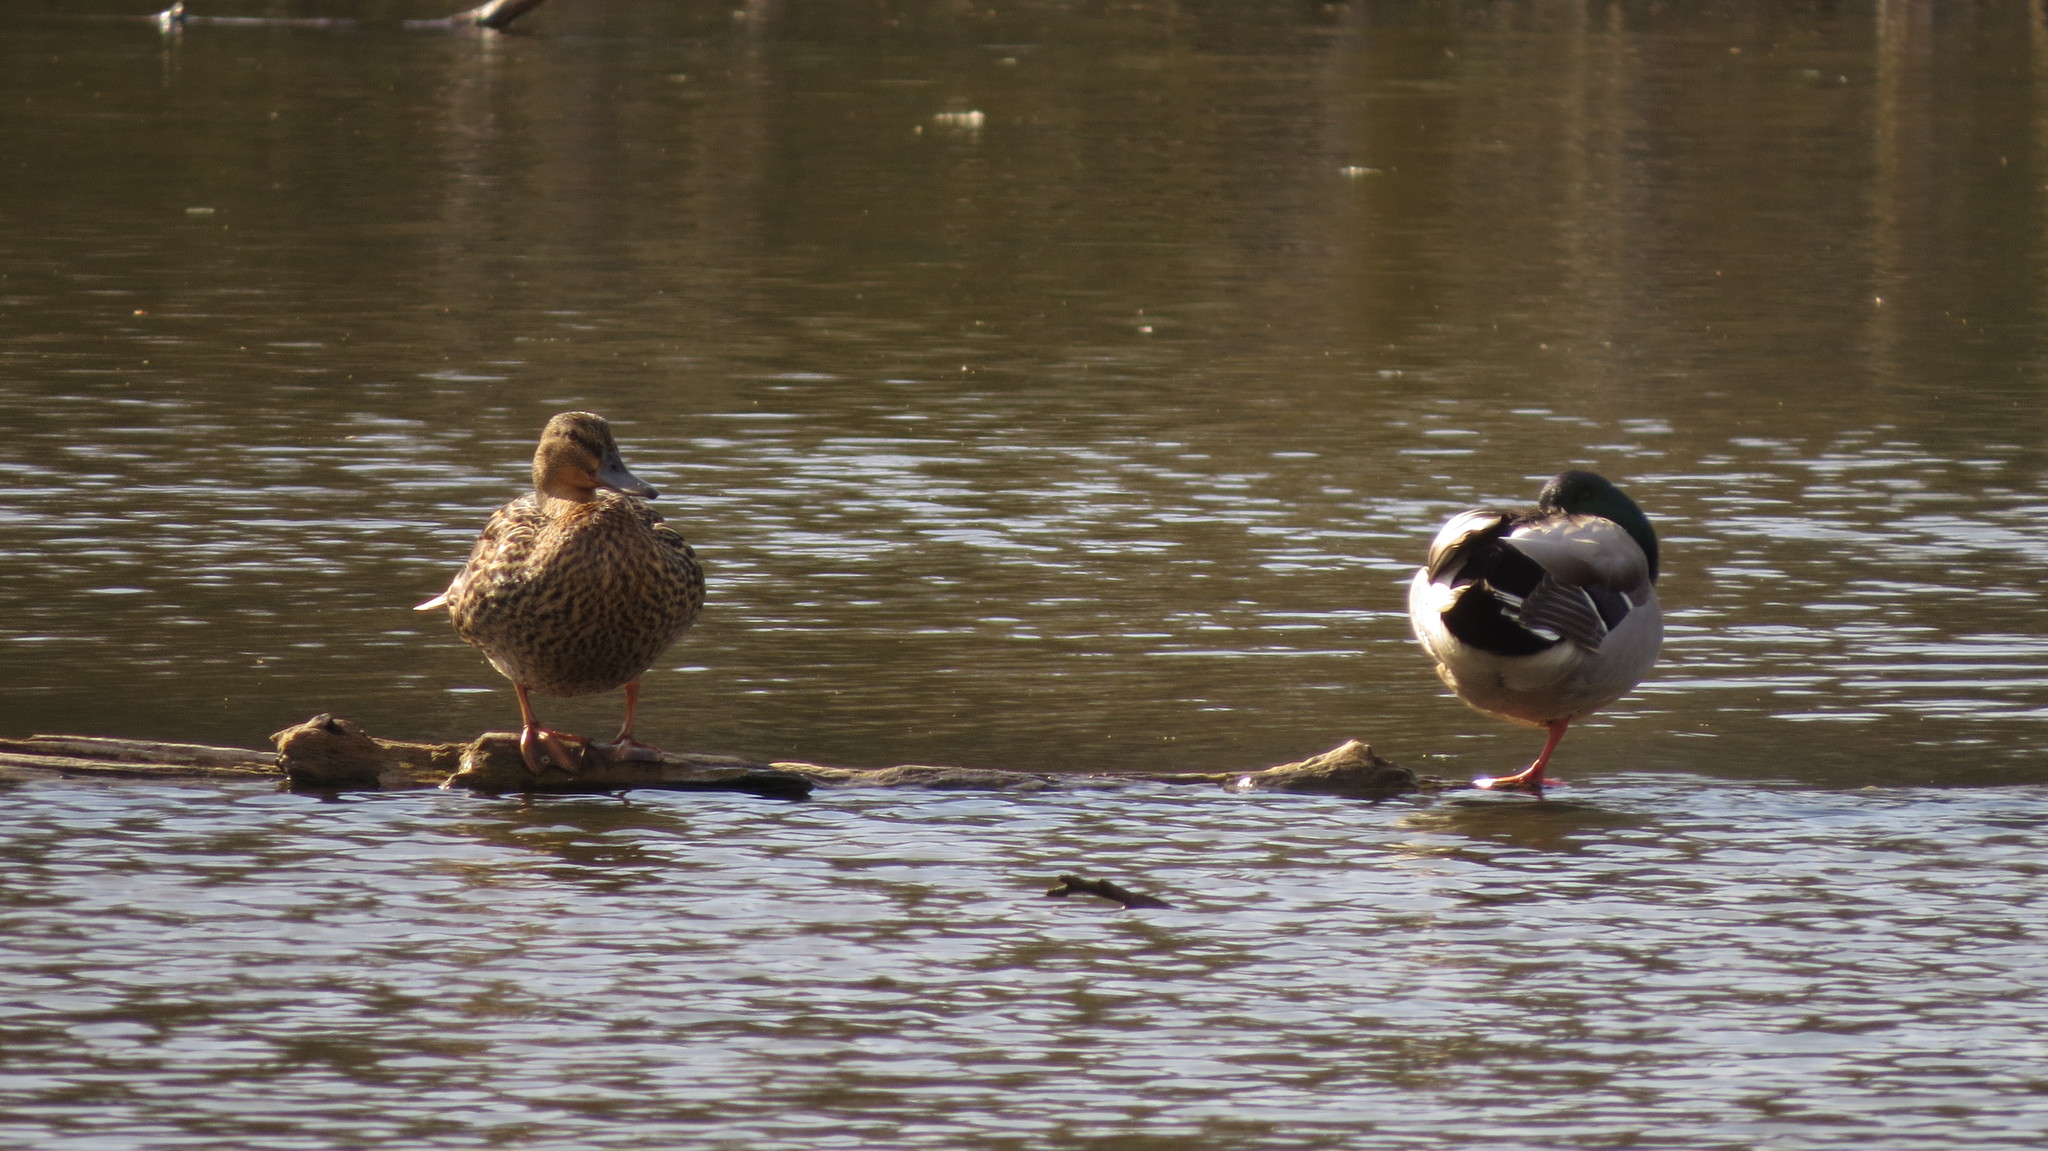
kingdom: Animalia
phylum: Chordata
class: Aves
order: Anseriformes
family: Anatidae
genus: Anas
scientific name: Anas platyrhynchos
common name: Mallard
